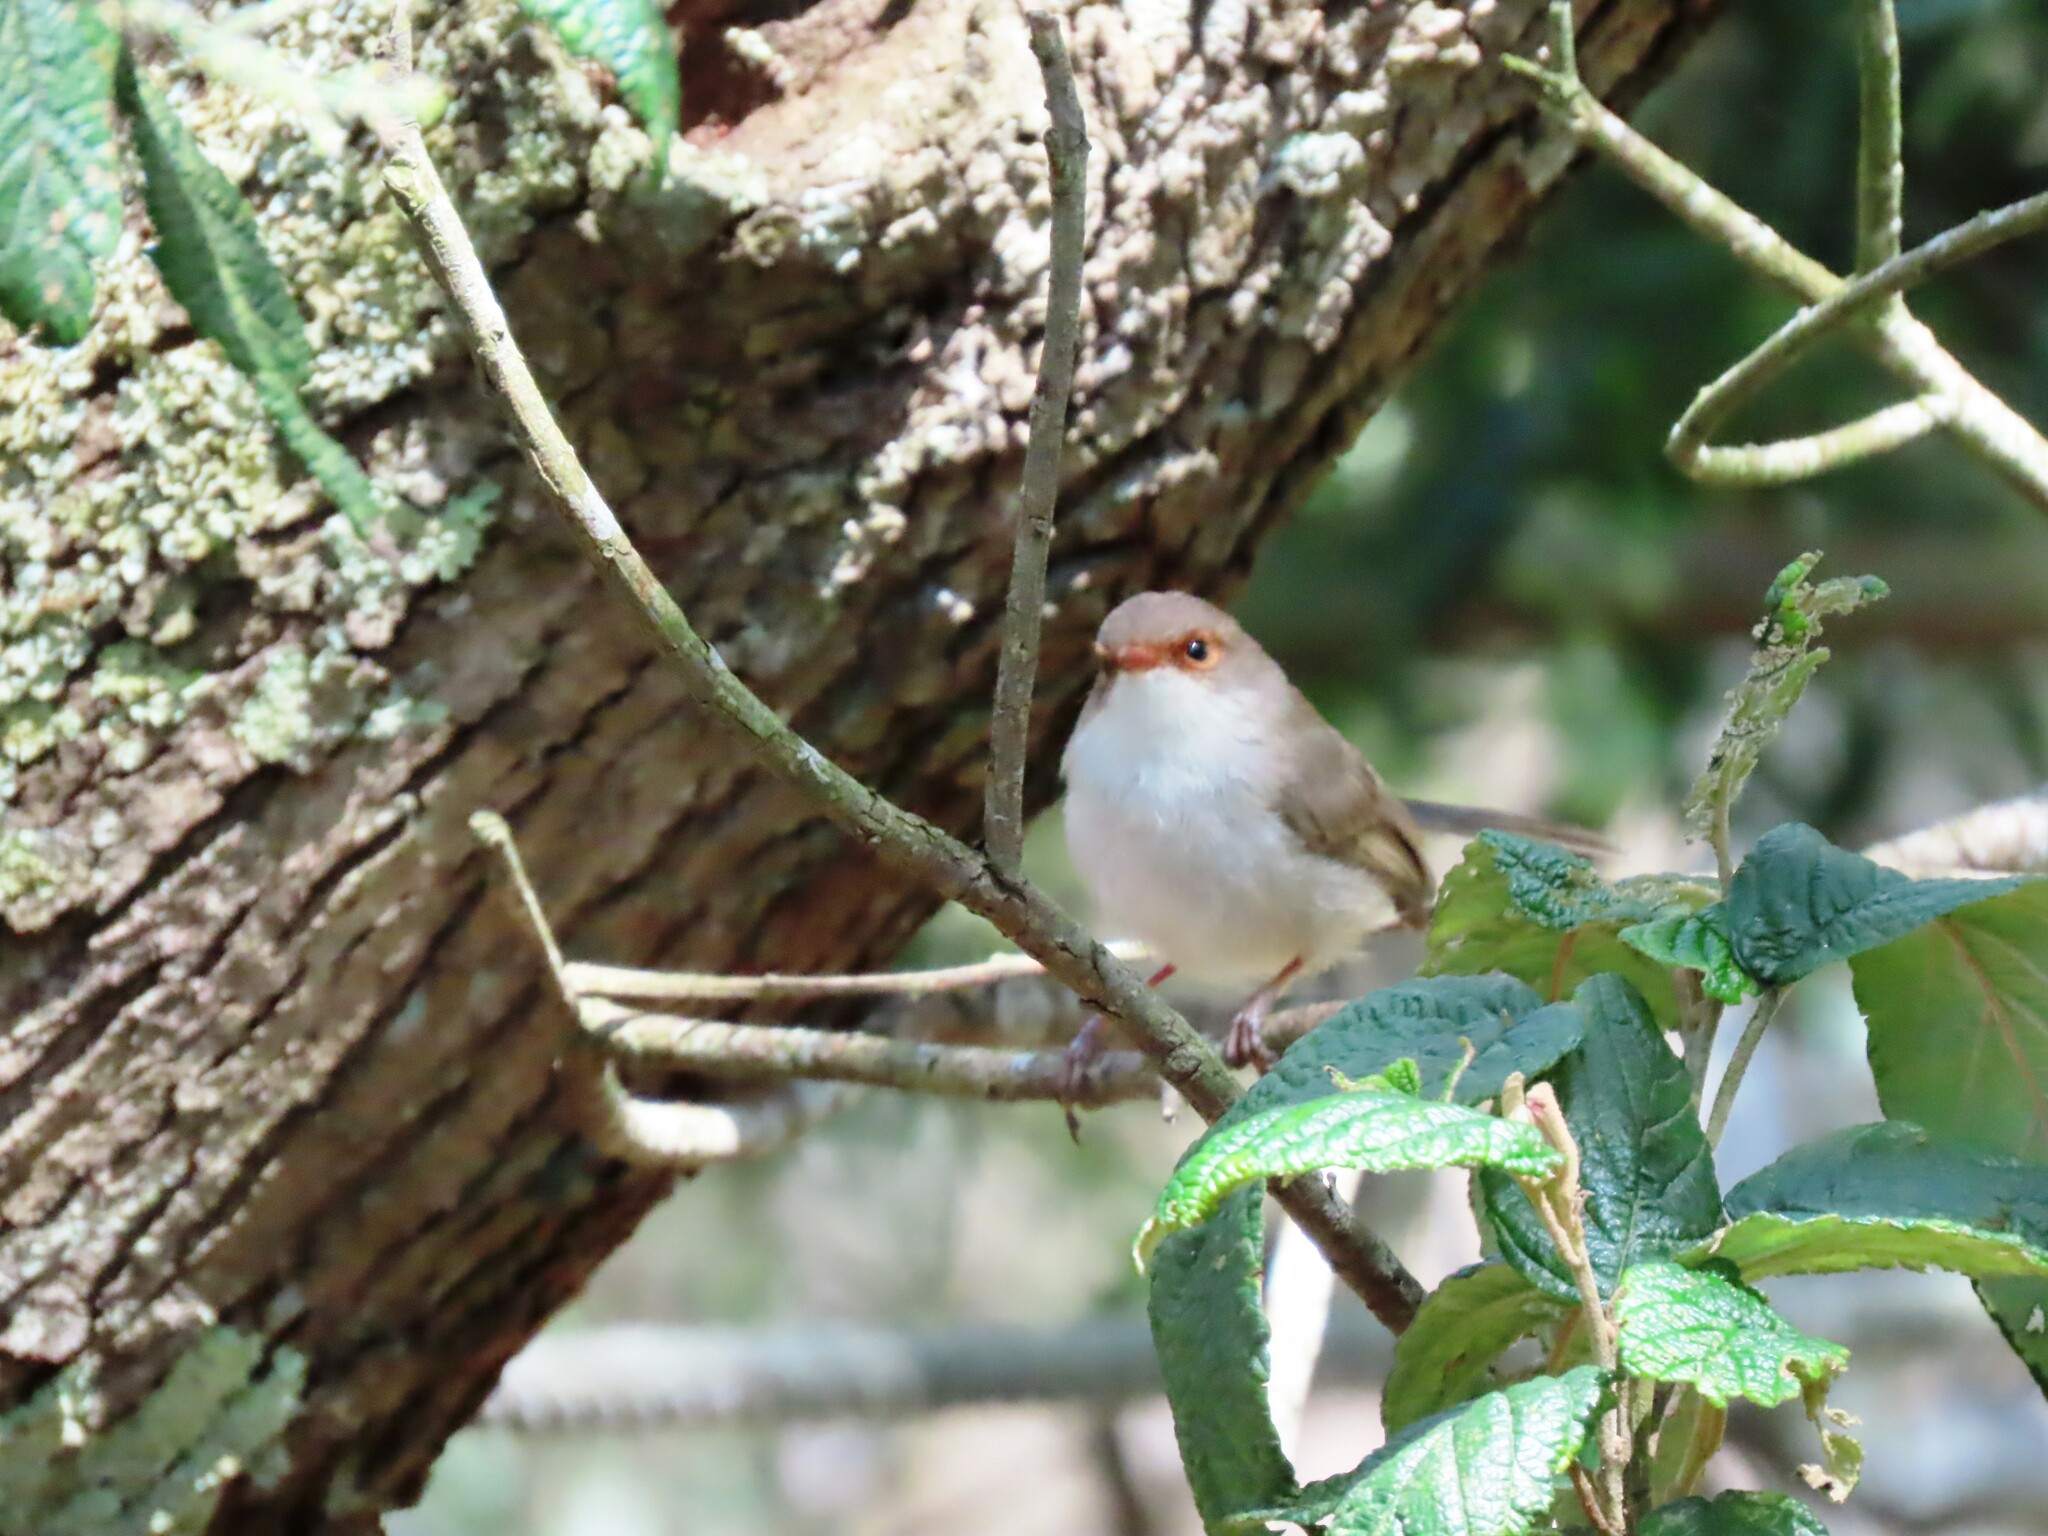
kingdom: Animalia
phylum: Chordata
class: Aves
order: Passeriformes
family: Maluridae
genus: Malurus
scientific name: Malurus cyaneus
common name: Superb fairywren
